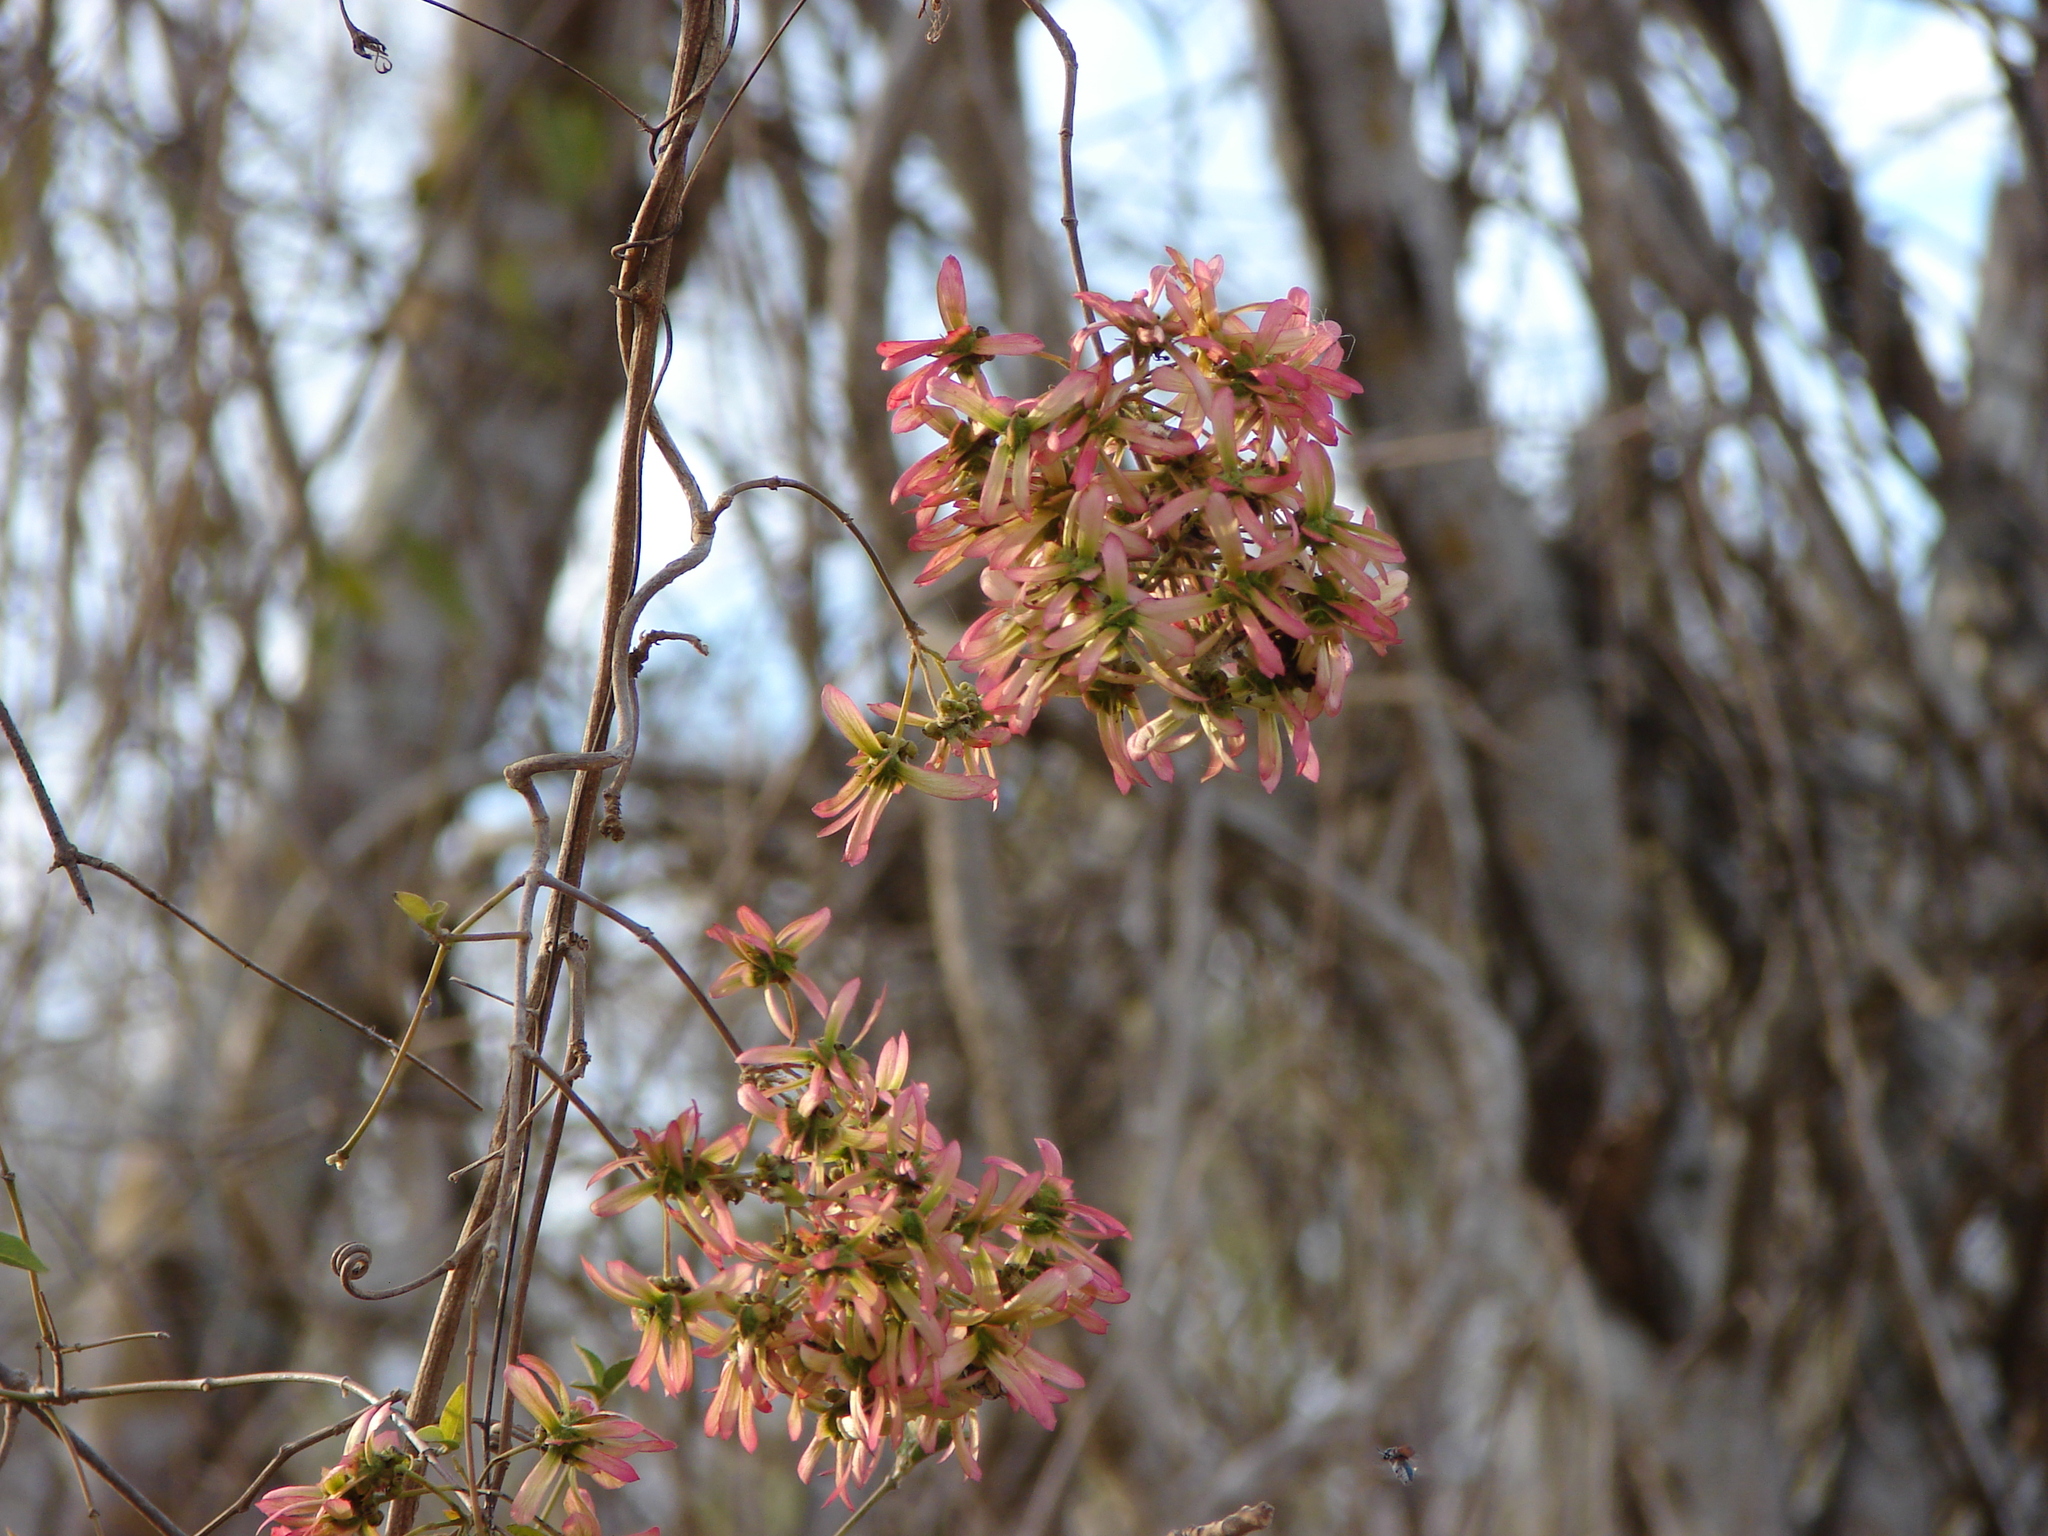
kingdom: Plantae
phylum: Tracheophyta
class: Magnoliopsida
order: Malpighiales
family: Malpighiaceae
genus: Tetrapterys
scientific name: Tetrapterys mexicana
